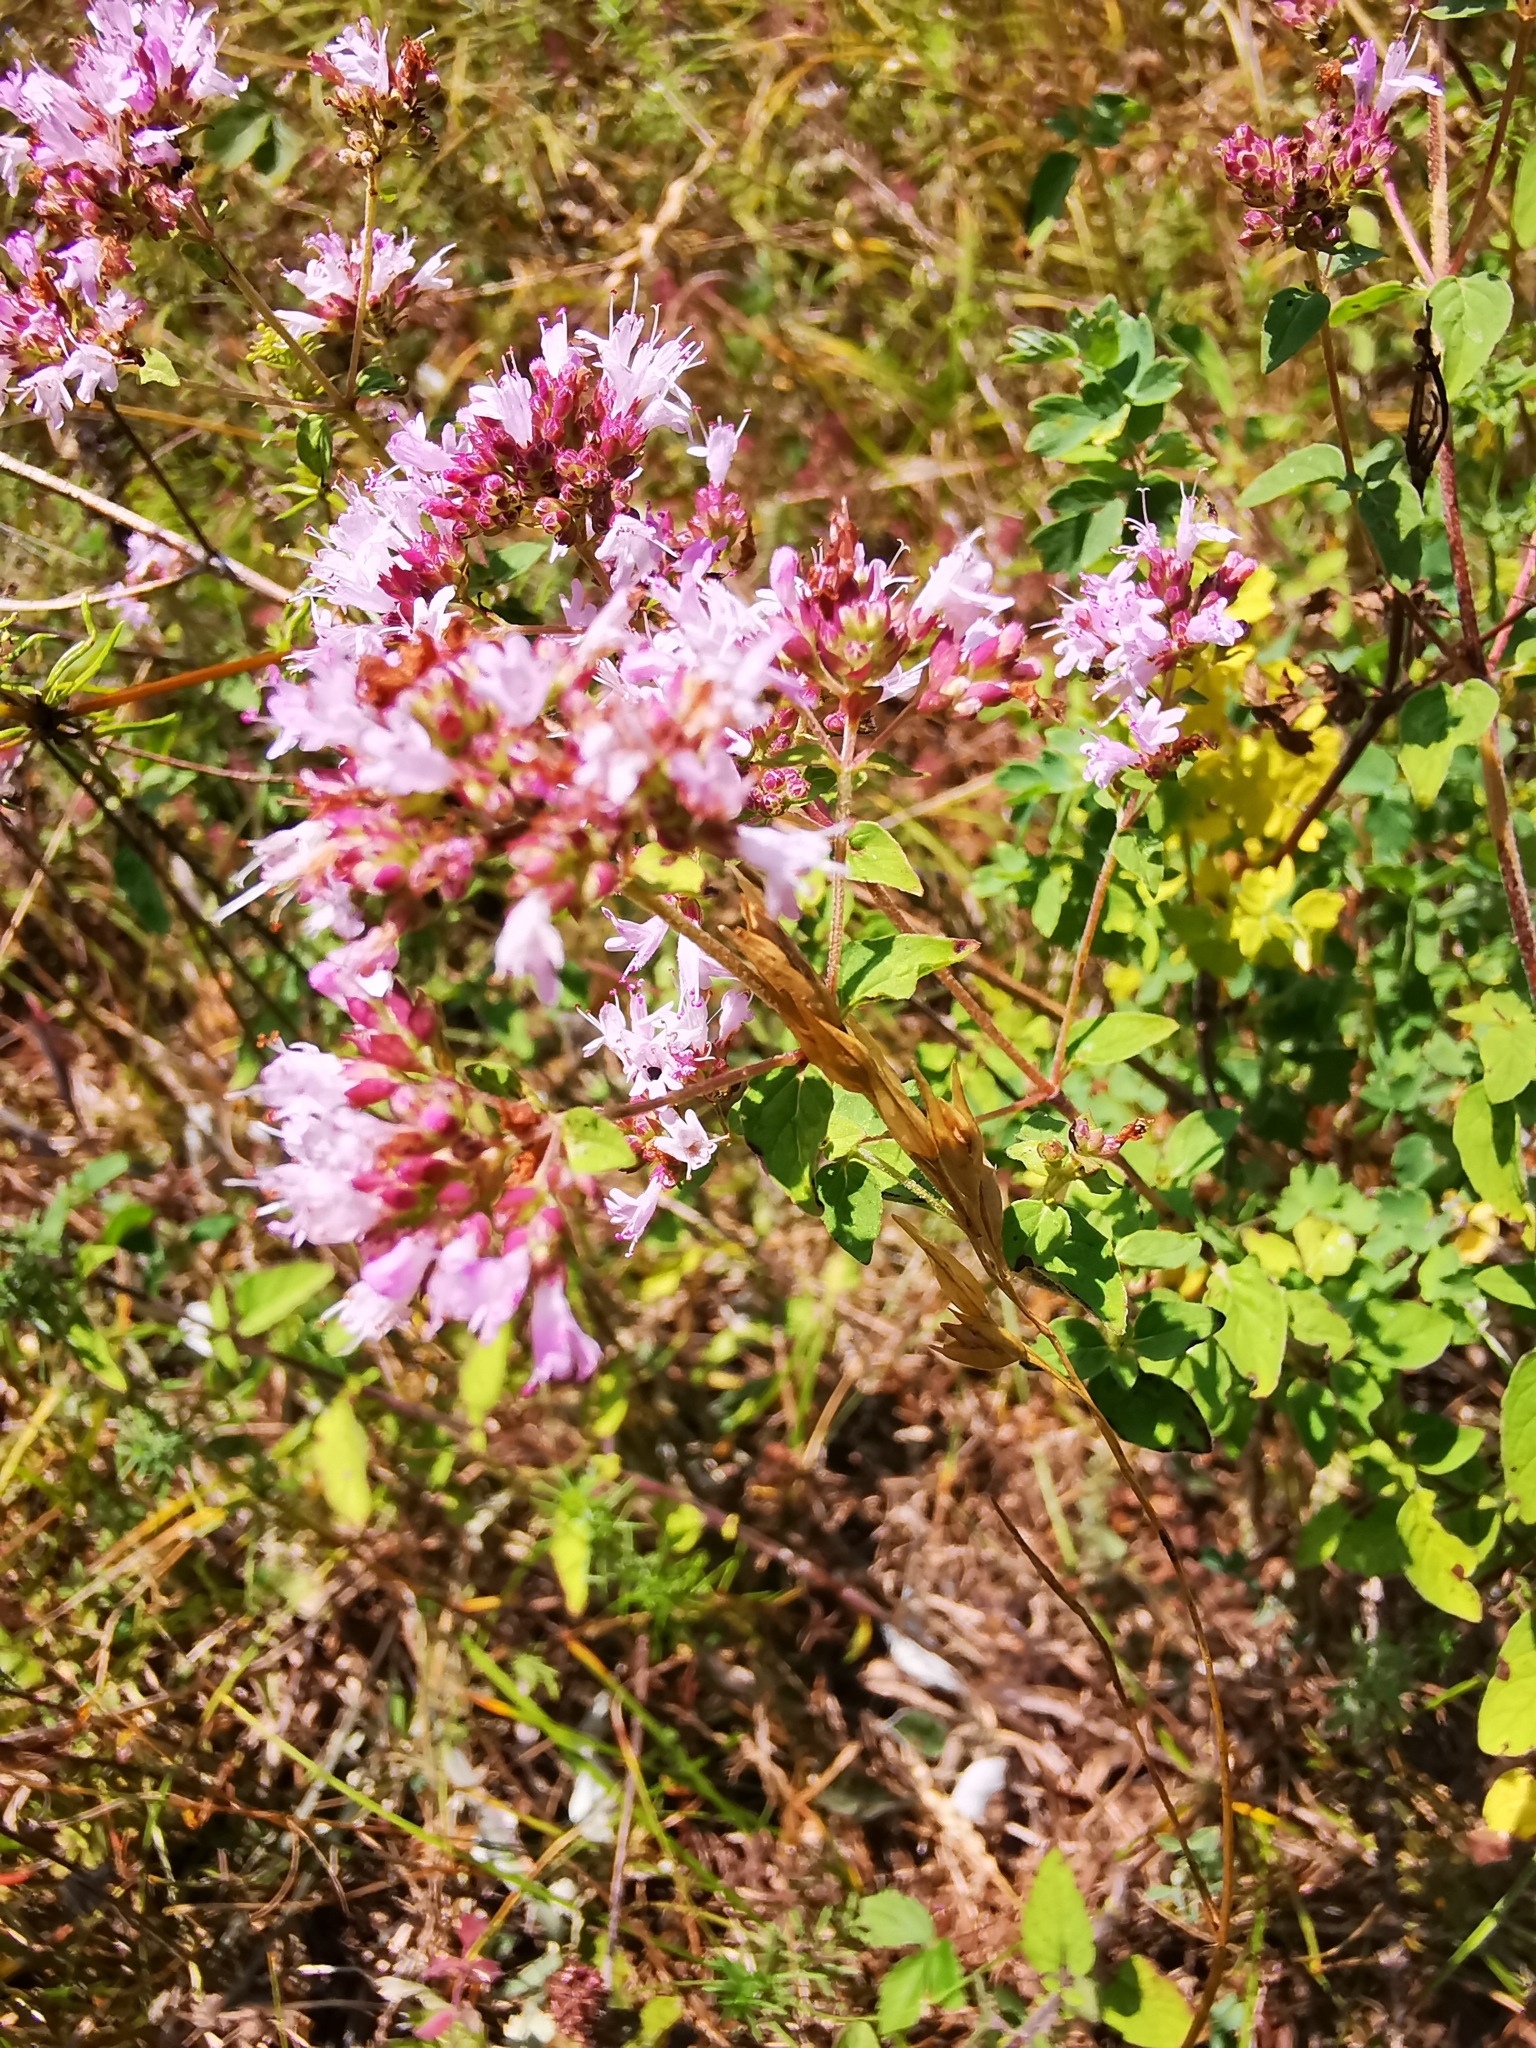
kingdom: Plantae
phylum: Tracheophyta
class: Magnoliopsida
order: Lamiales
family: Lamiaceae
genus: Origanum
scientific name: Origanum vulgare
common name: Wild marjoram
